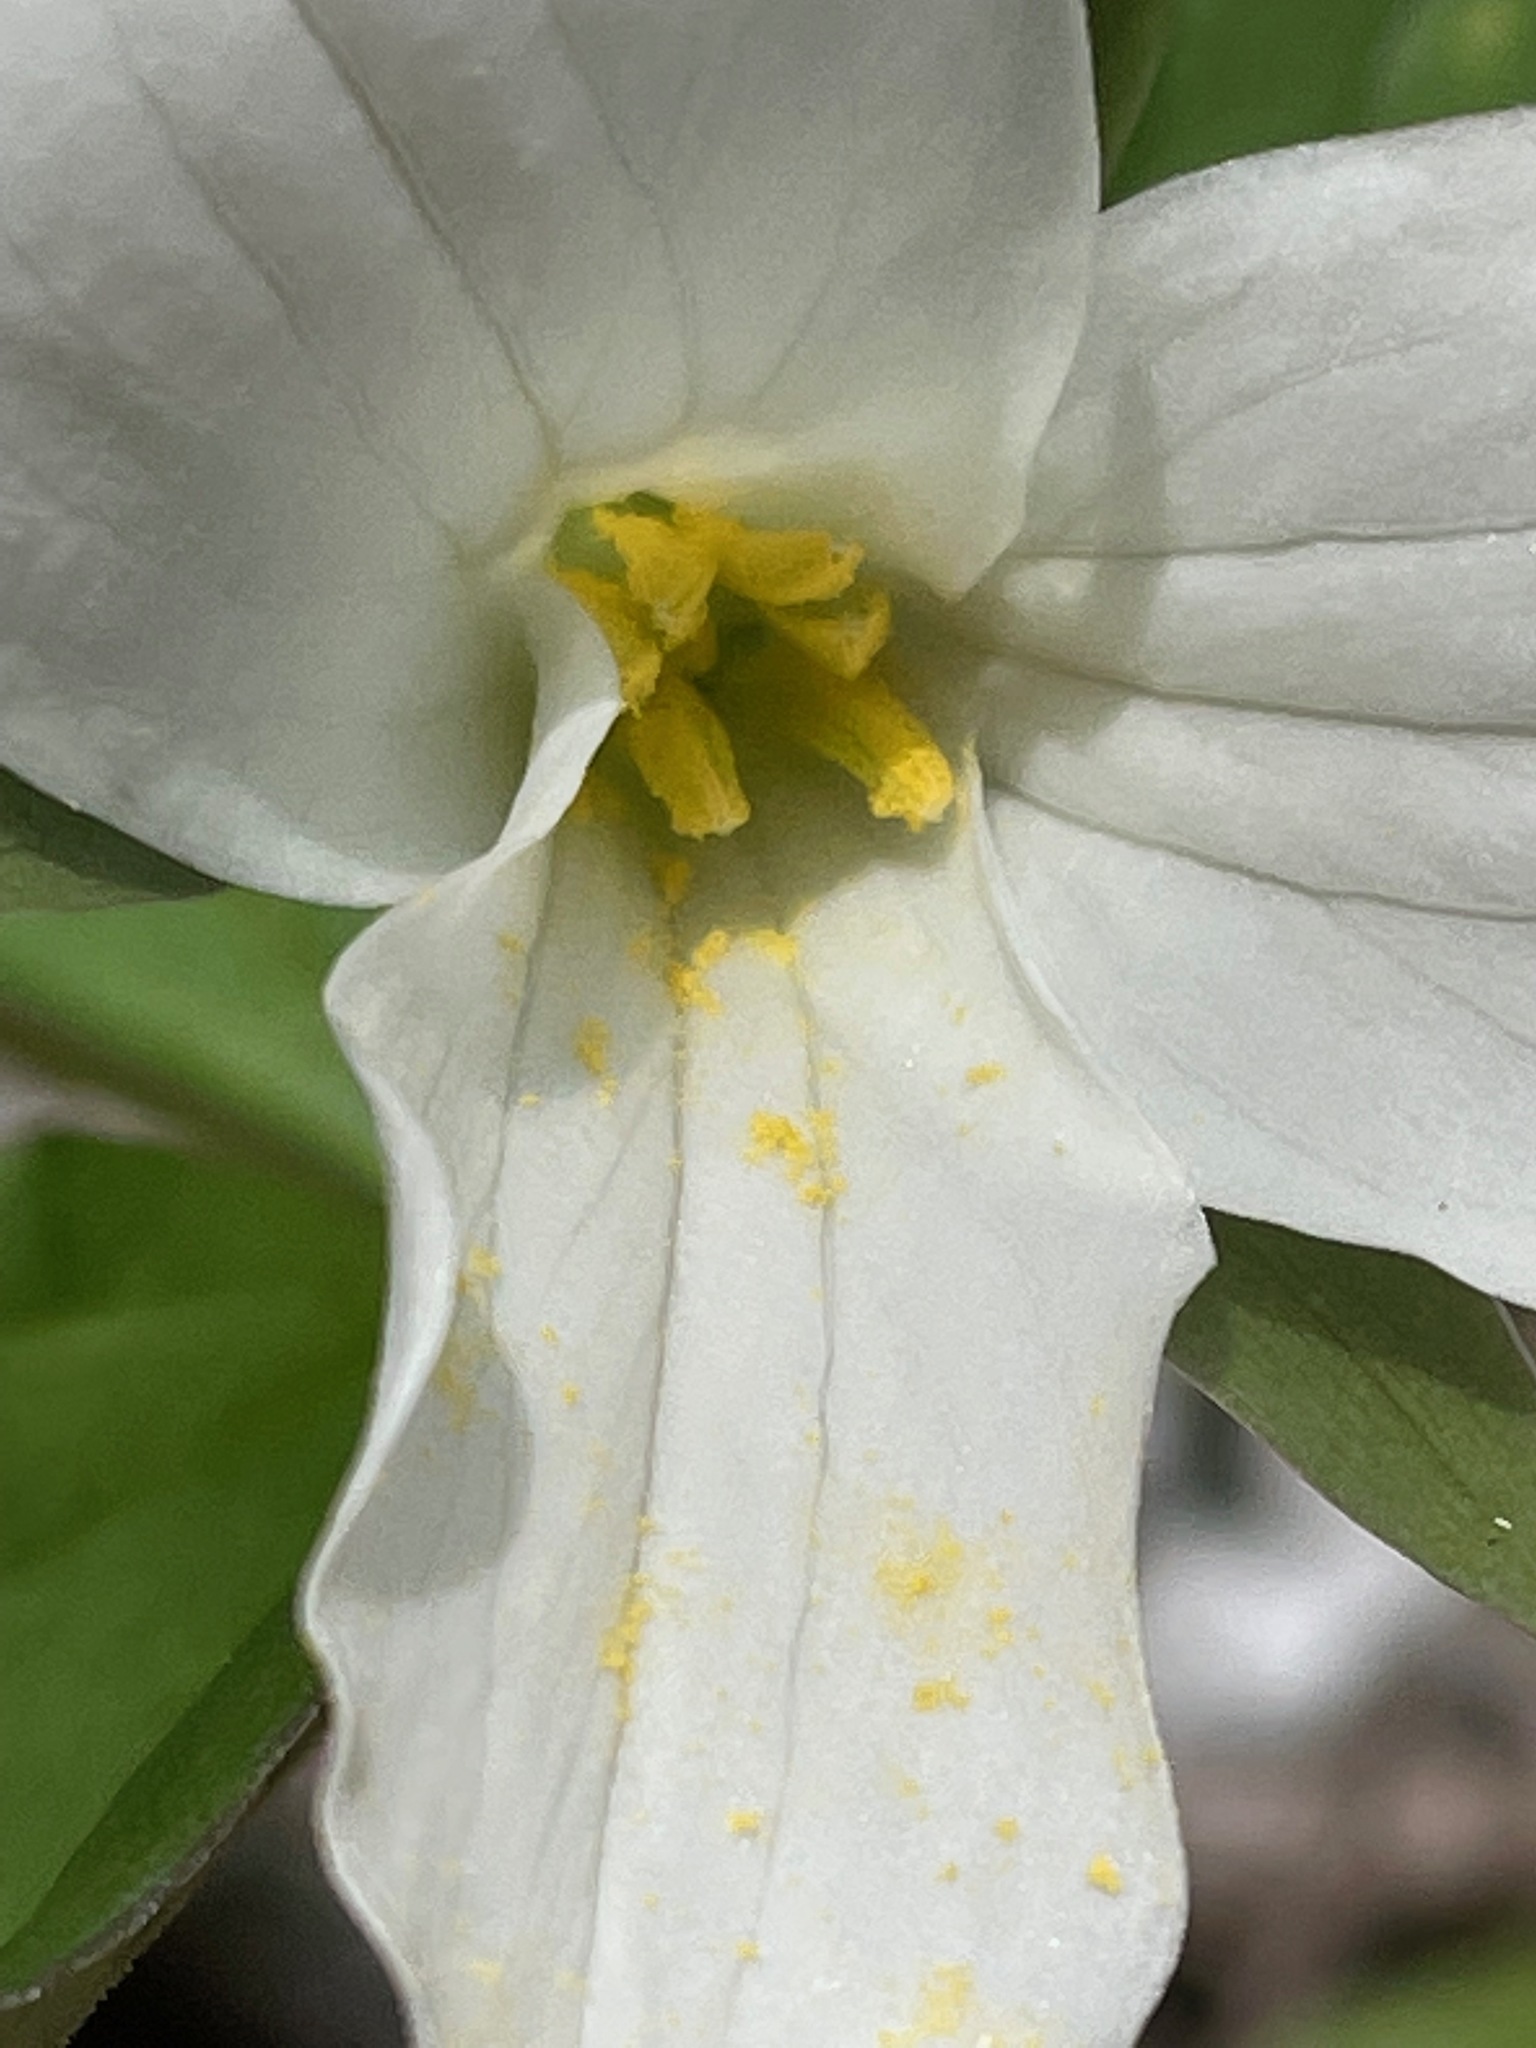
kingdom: Plantae
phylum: Tracheophyta
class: Liliopsida
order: Liliales
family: Melanthiaceae
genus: Trillium
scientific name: Trillium grandiflorum
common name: Great white trillium
